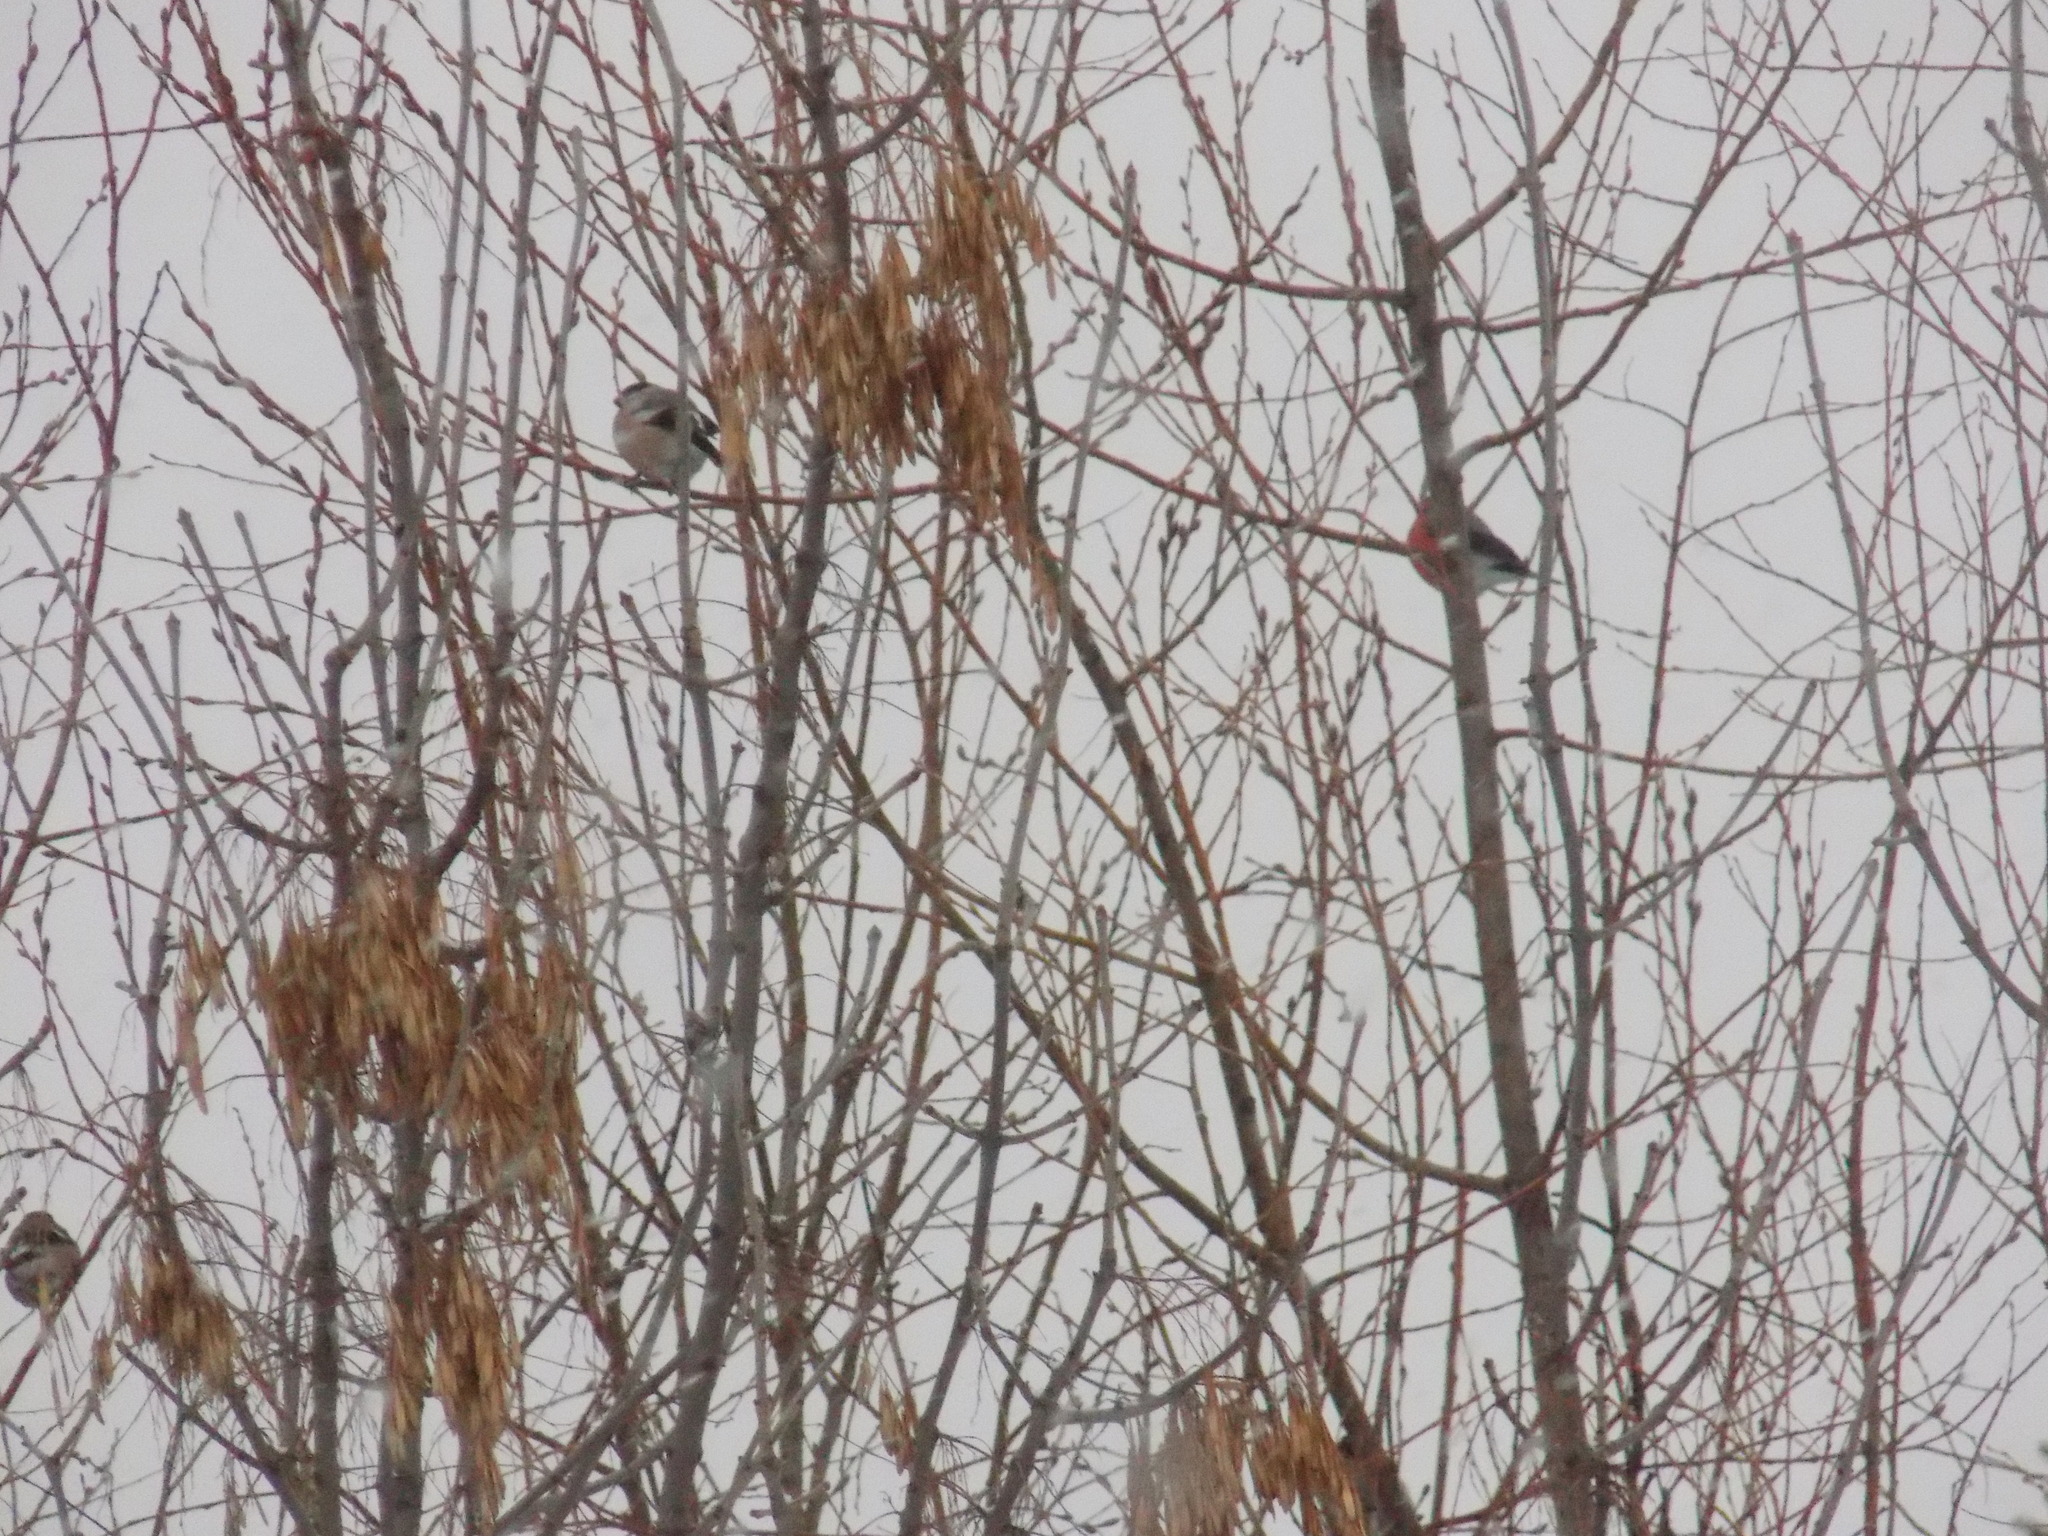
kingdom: Animalia
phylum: Chordata
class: Aves
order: Passeriformes
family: Fringillidae
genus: Pyrrhula
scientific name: Pyrrhula pyrrhula
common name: Eurasian bullfinch
